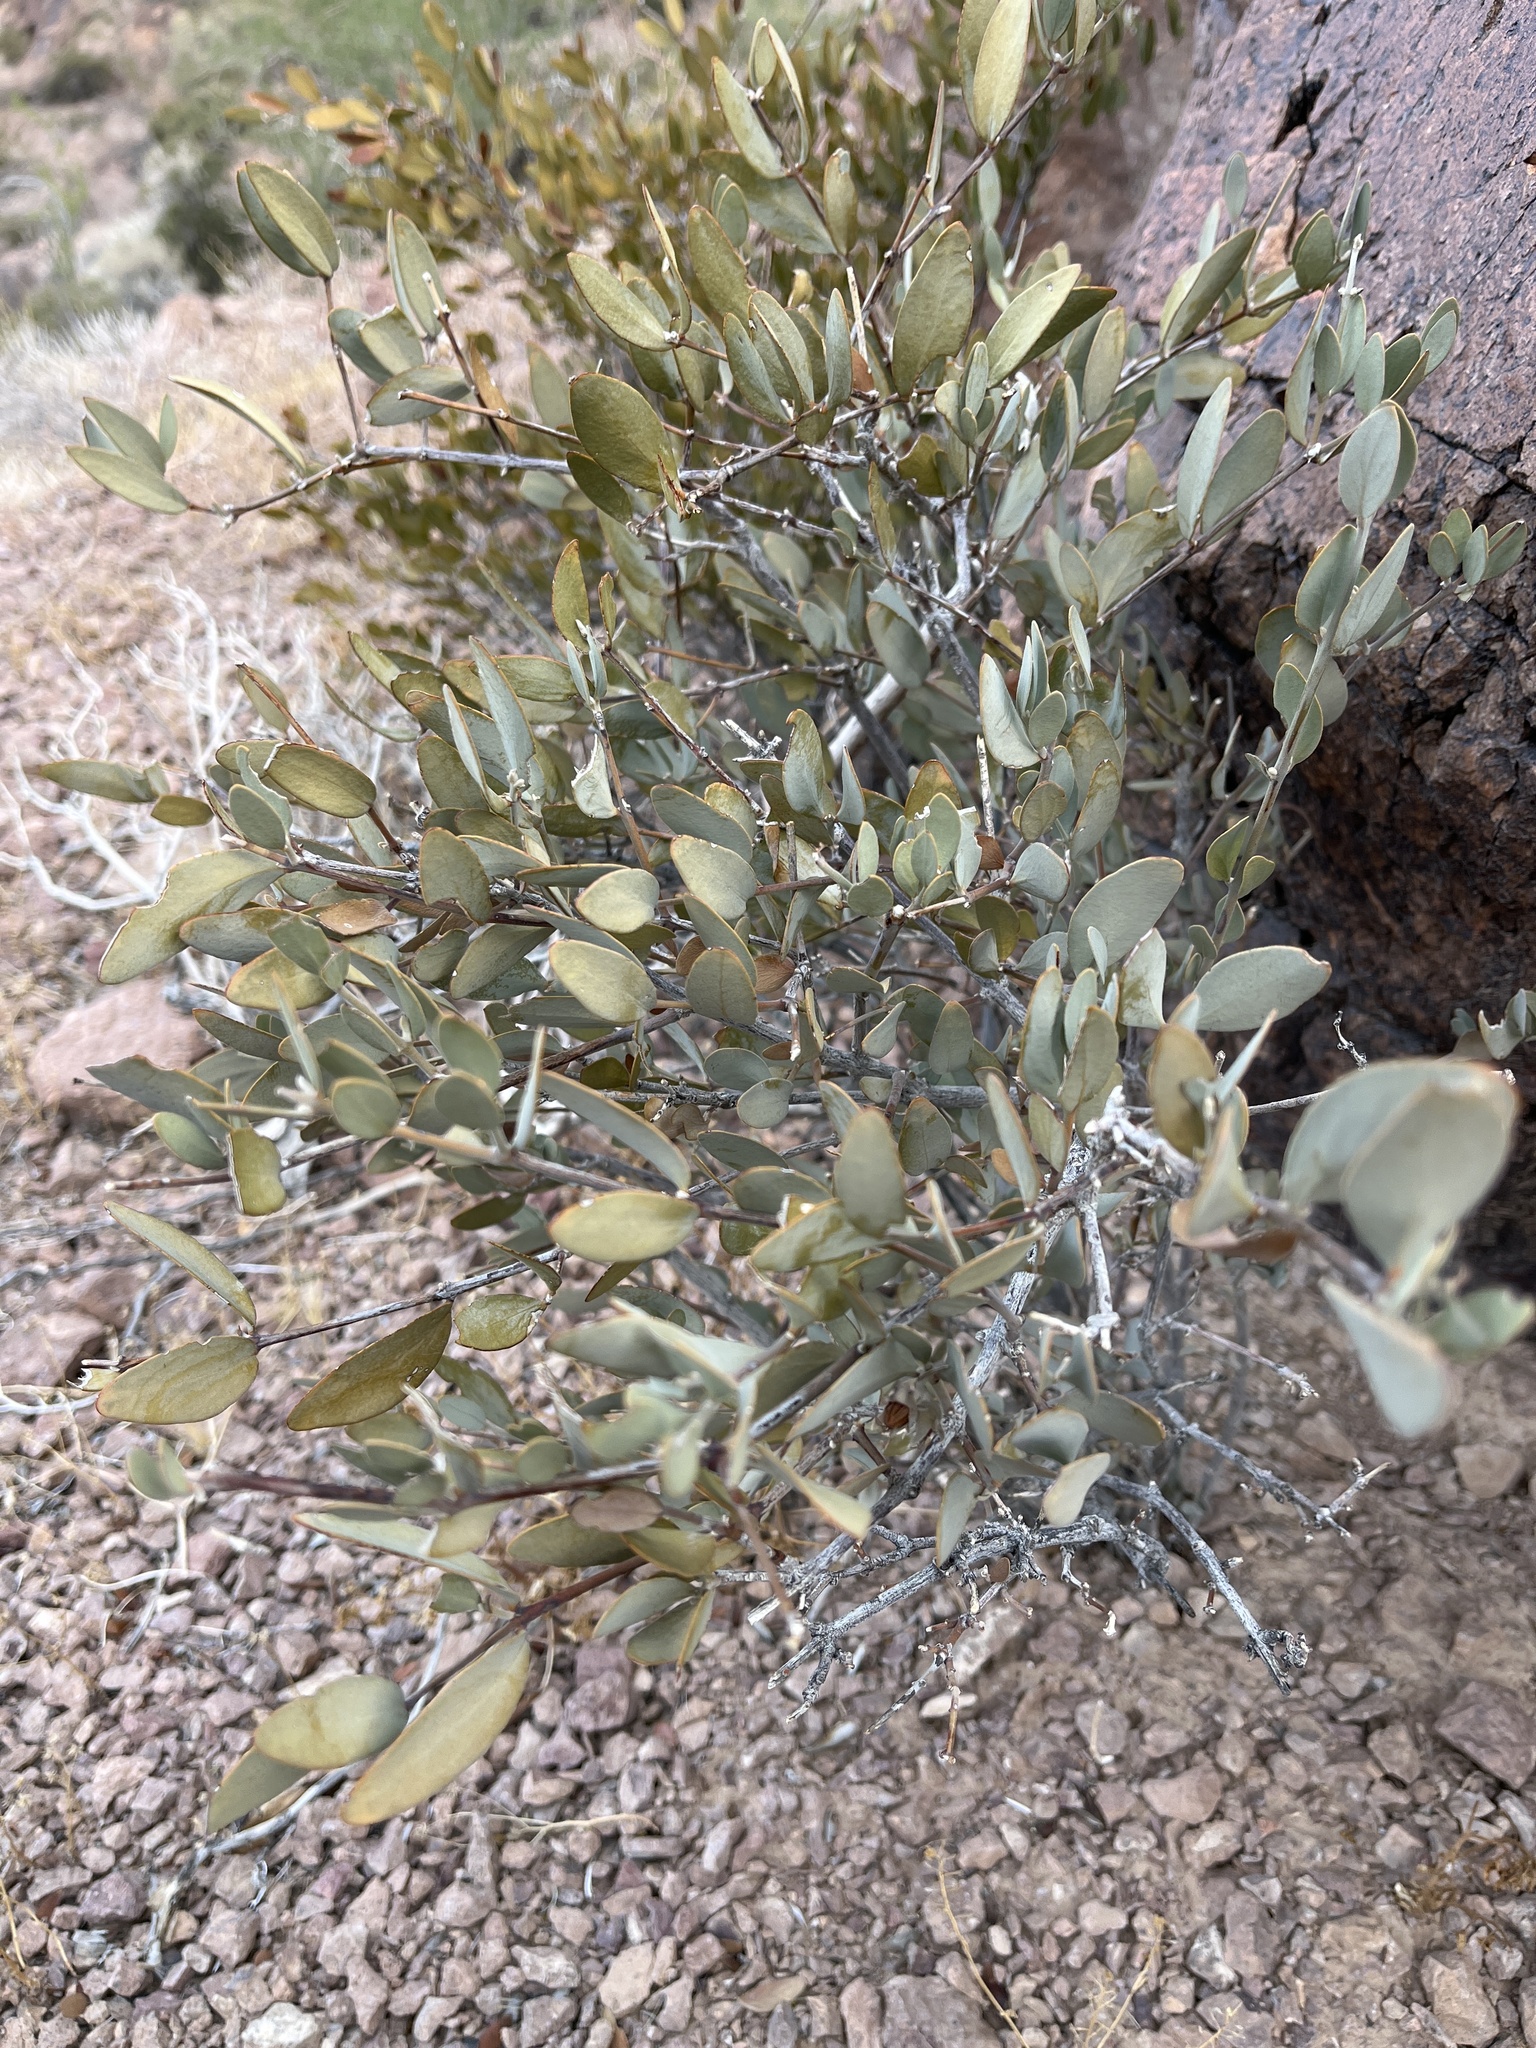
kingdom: Plantae
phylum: Tracheophyta
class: Magnoliopsida
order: Caryophyllales
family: Simmondsiaceae
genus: Simmondsia
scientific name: Simmondsia chinensis
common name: Jojoba
